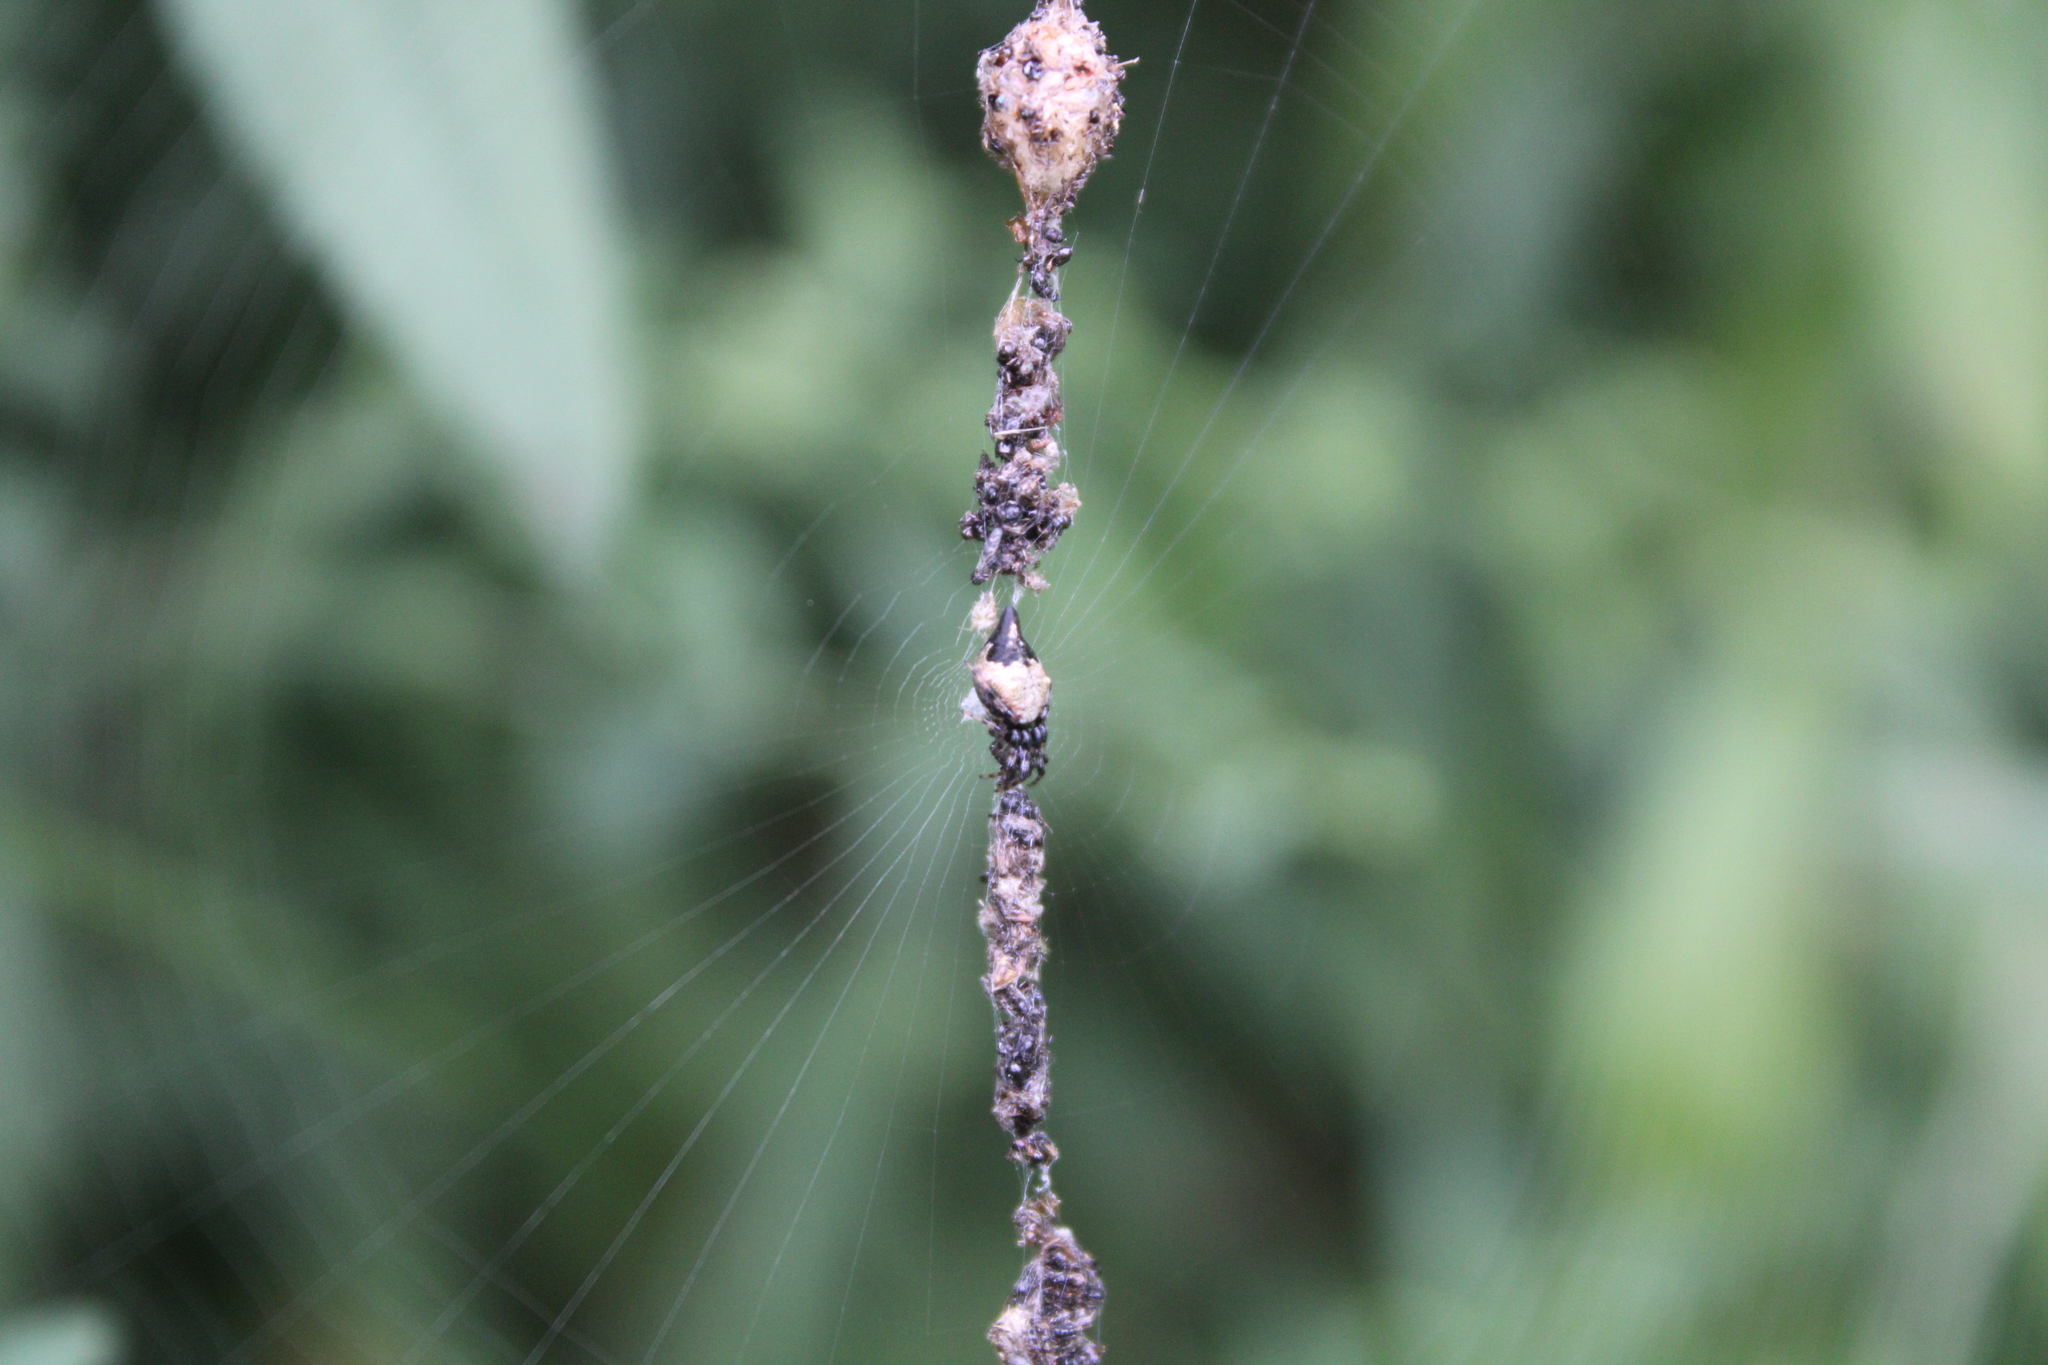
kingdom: Animalia
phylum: Arthropoda
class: Arachnida
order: Araneae
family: Araneidae
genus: Cyclosa
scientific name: Cyclosa turbinata
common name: Orb weavers
